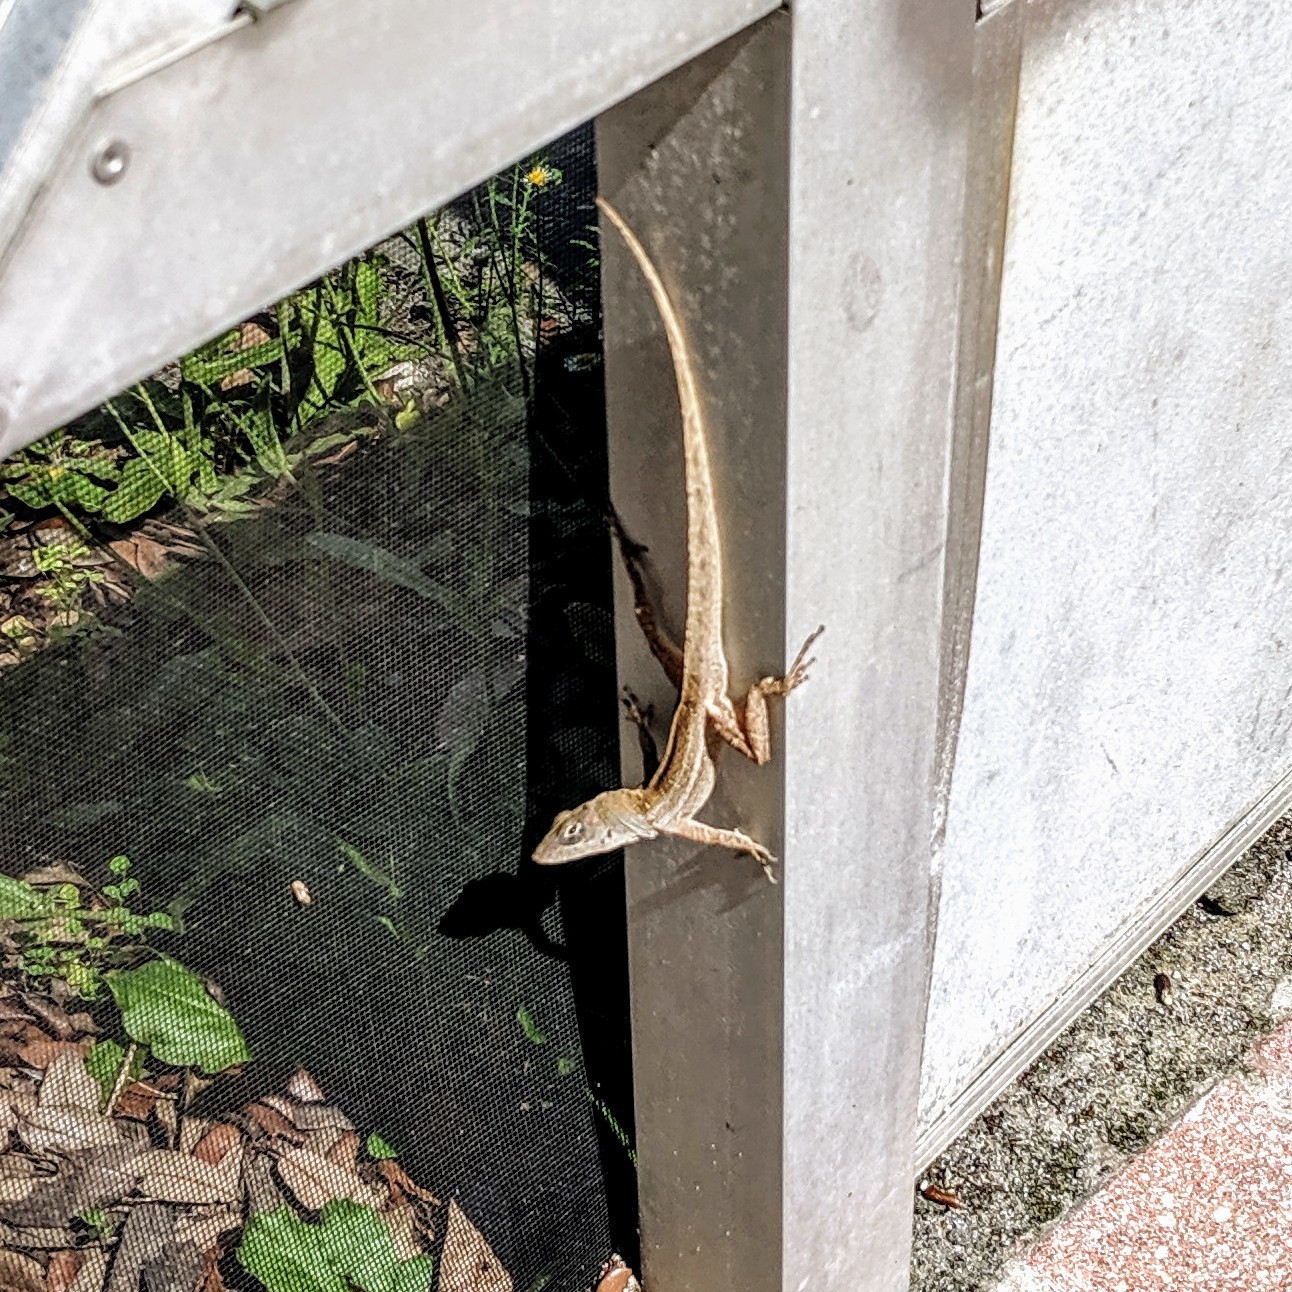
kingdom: Animalia
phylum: Chordata
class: Squamata
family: Dactyloidae
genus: Anolis
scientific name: Anolis sagrei
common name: Brown anole
